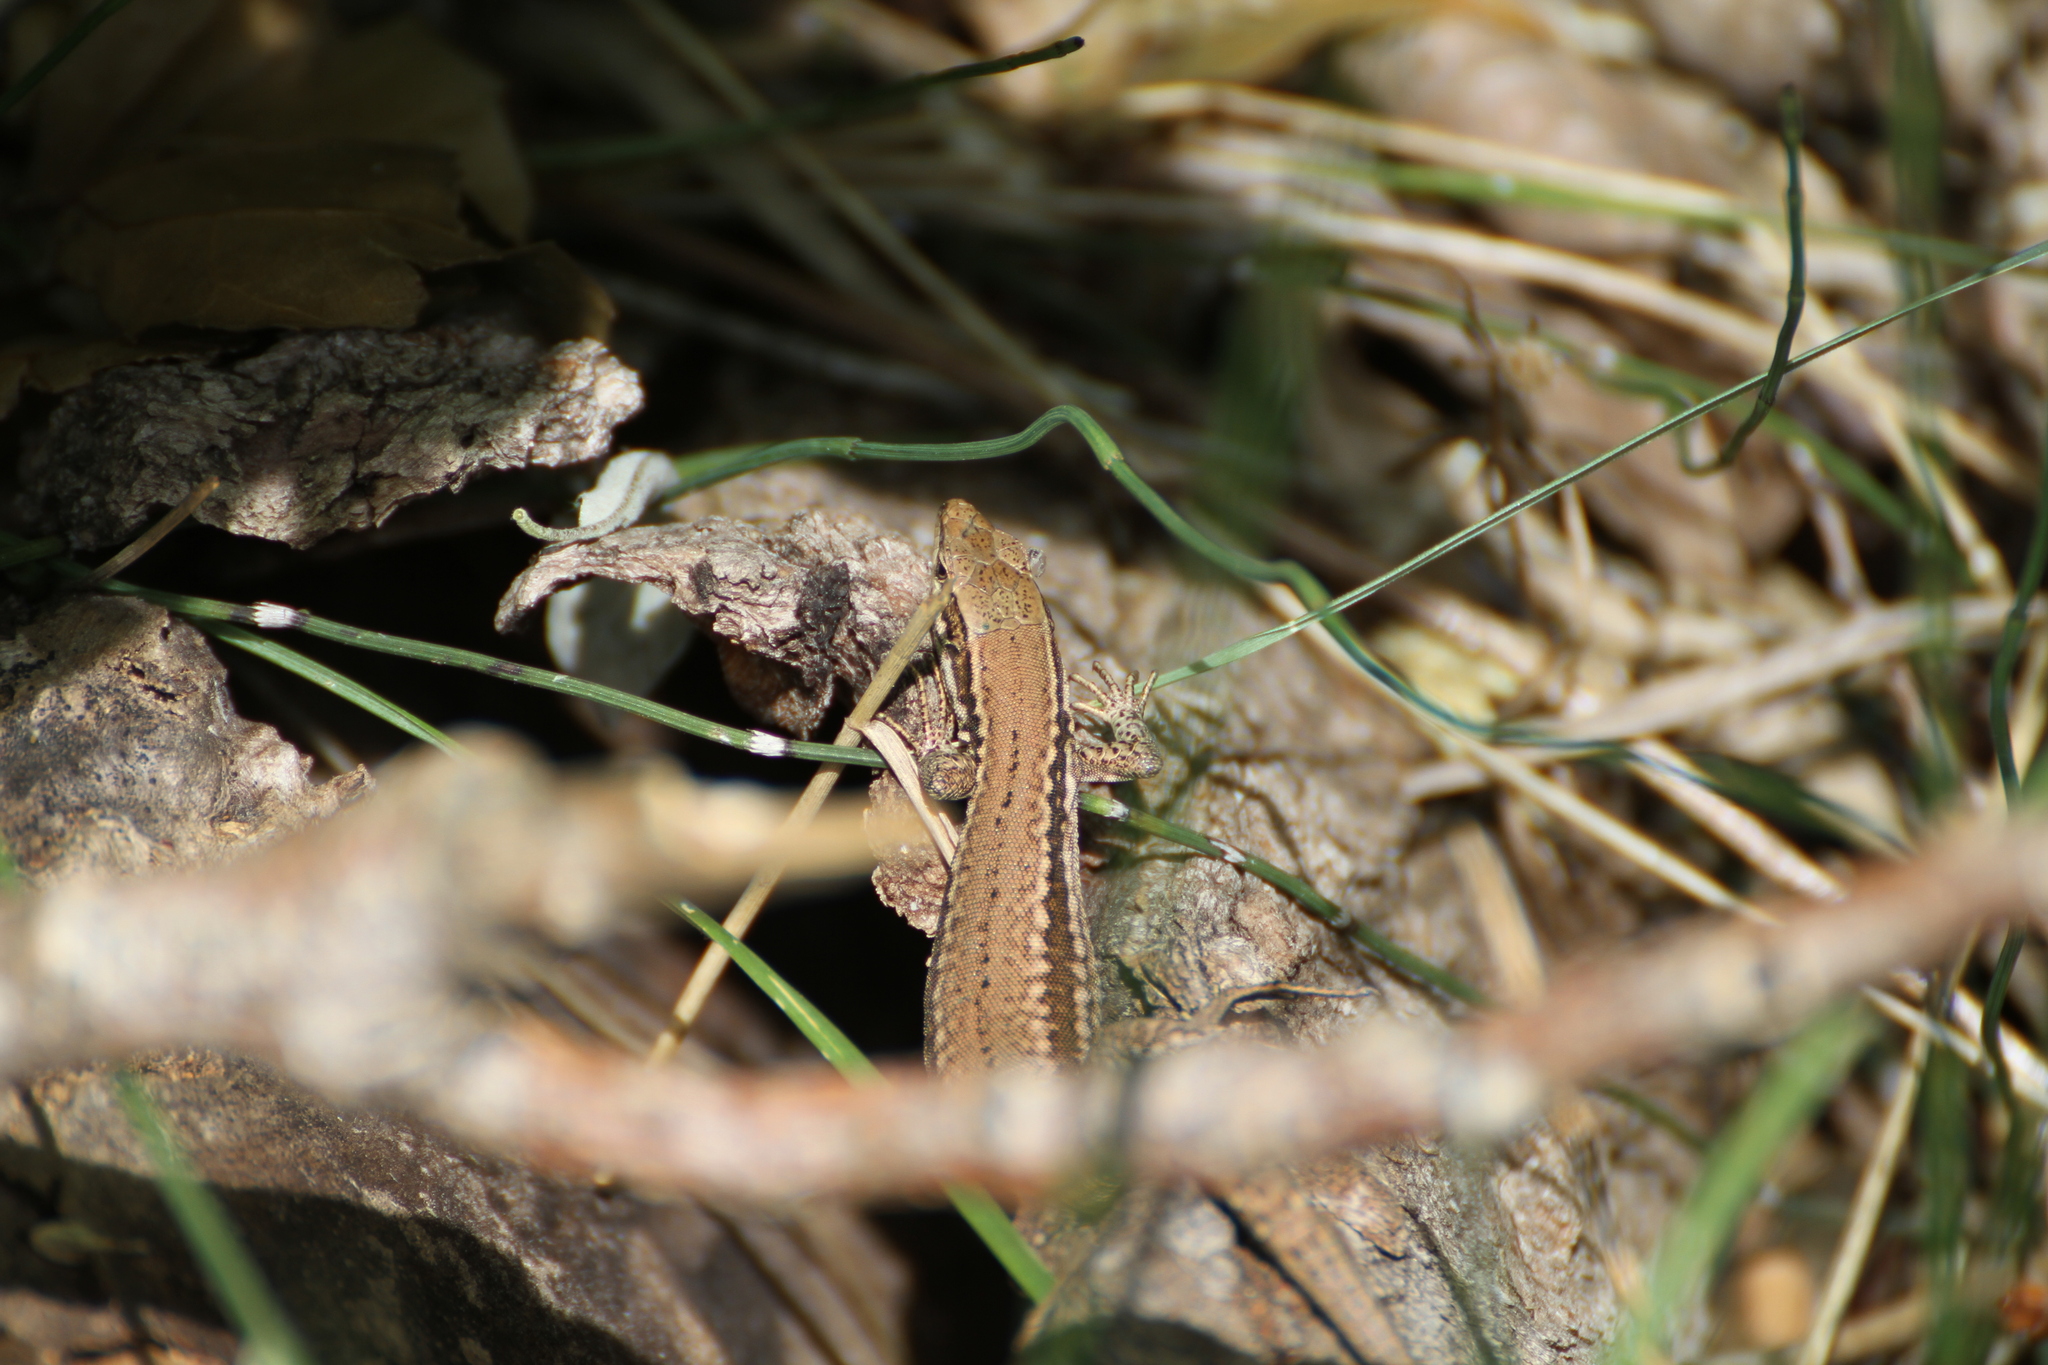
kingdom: Animalia
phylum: Chordata
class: Squamata
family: Lacertidae
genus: Podarcis
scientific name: Podarcis muralis
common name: Common wall lizard
